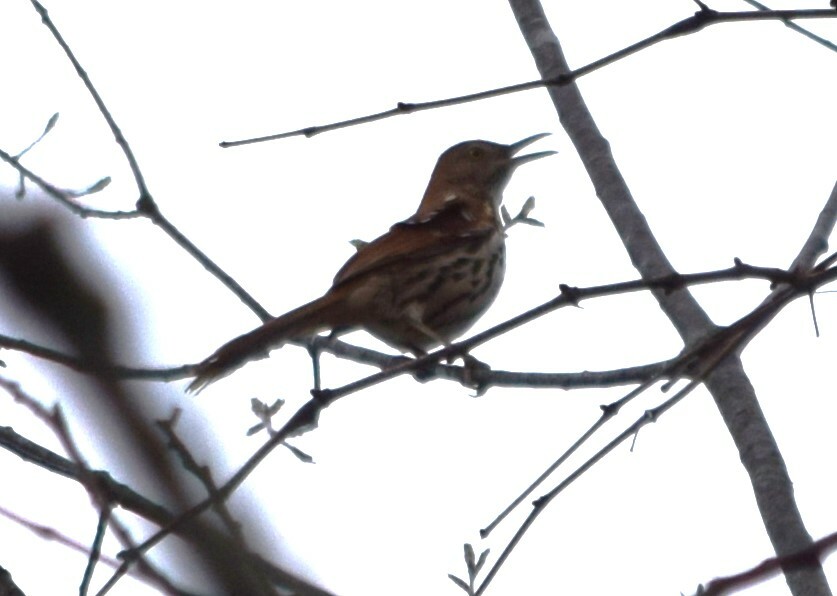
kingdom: Animalia
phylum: Chordata
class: Aves
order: Passeriformes
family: Mimidae
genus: Toxostoma
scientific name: Toxostoma rufum
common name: Brown thrasher
